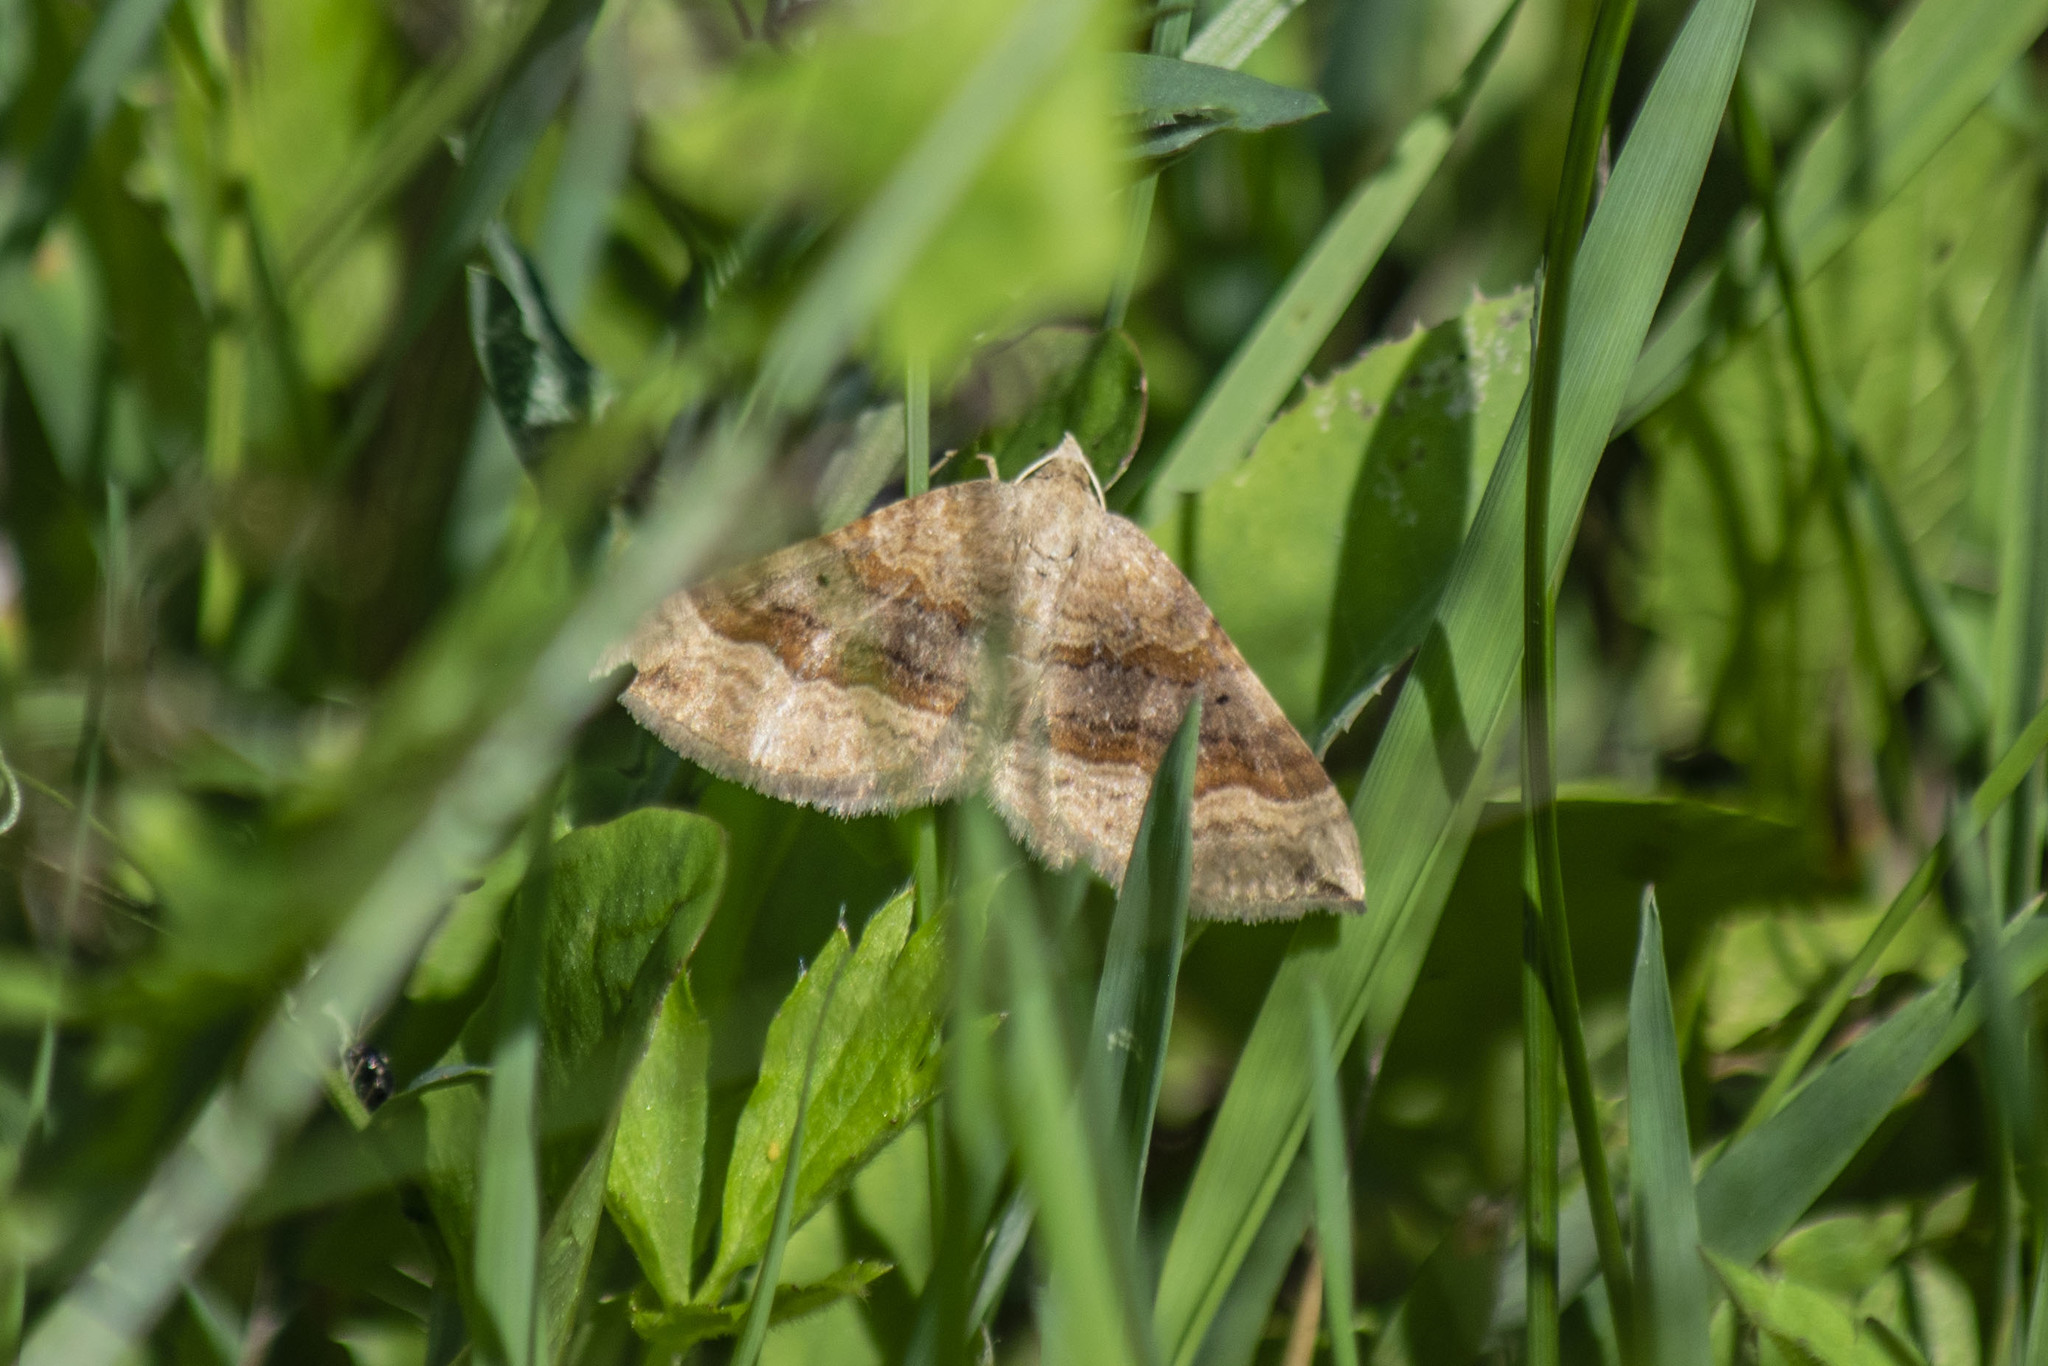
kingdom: Animalia
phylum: Arthropoda
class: Insecta
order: Lepidoptera
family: Geometridae
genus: Scotopteryx
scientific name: Scotopteryx chenopodiata
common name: Shaded broad-bar
